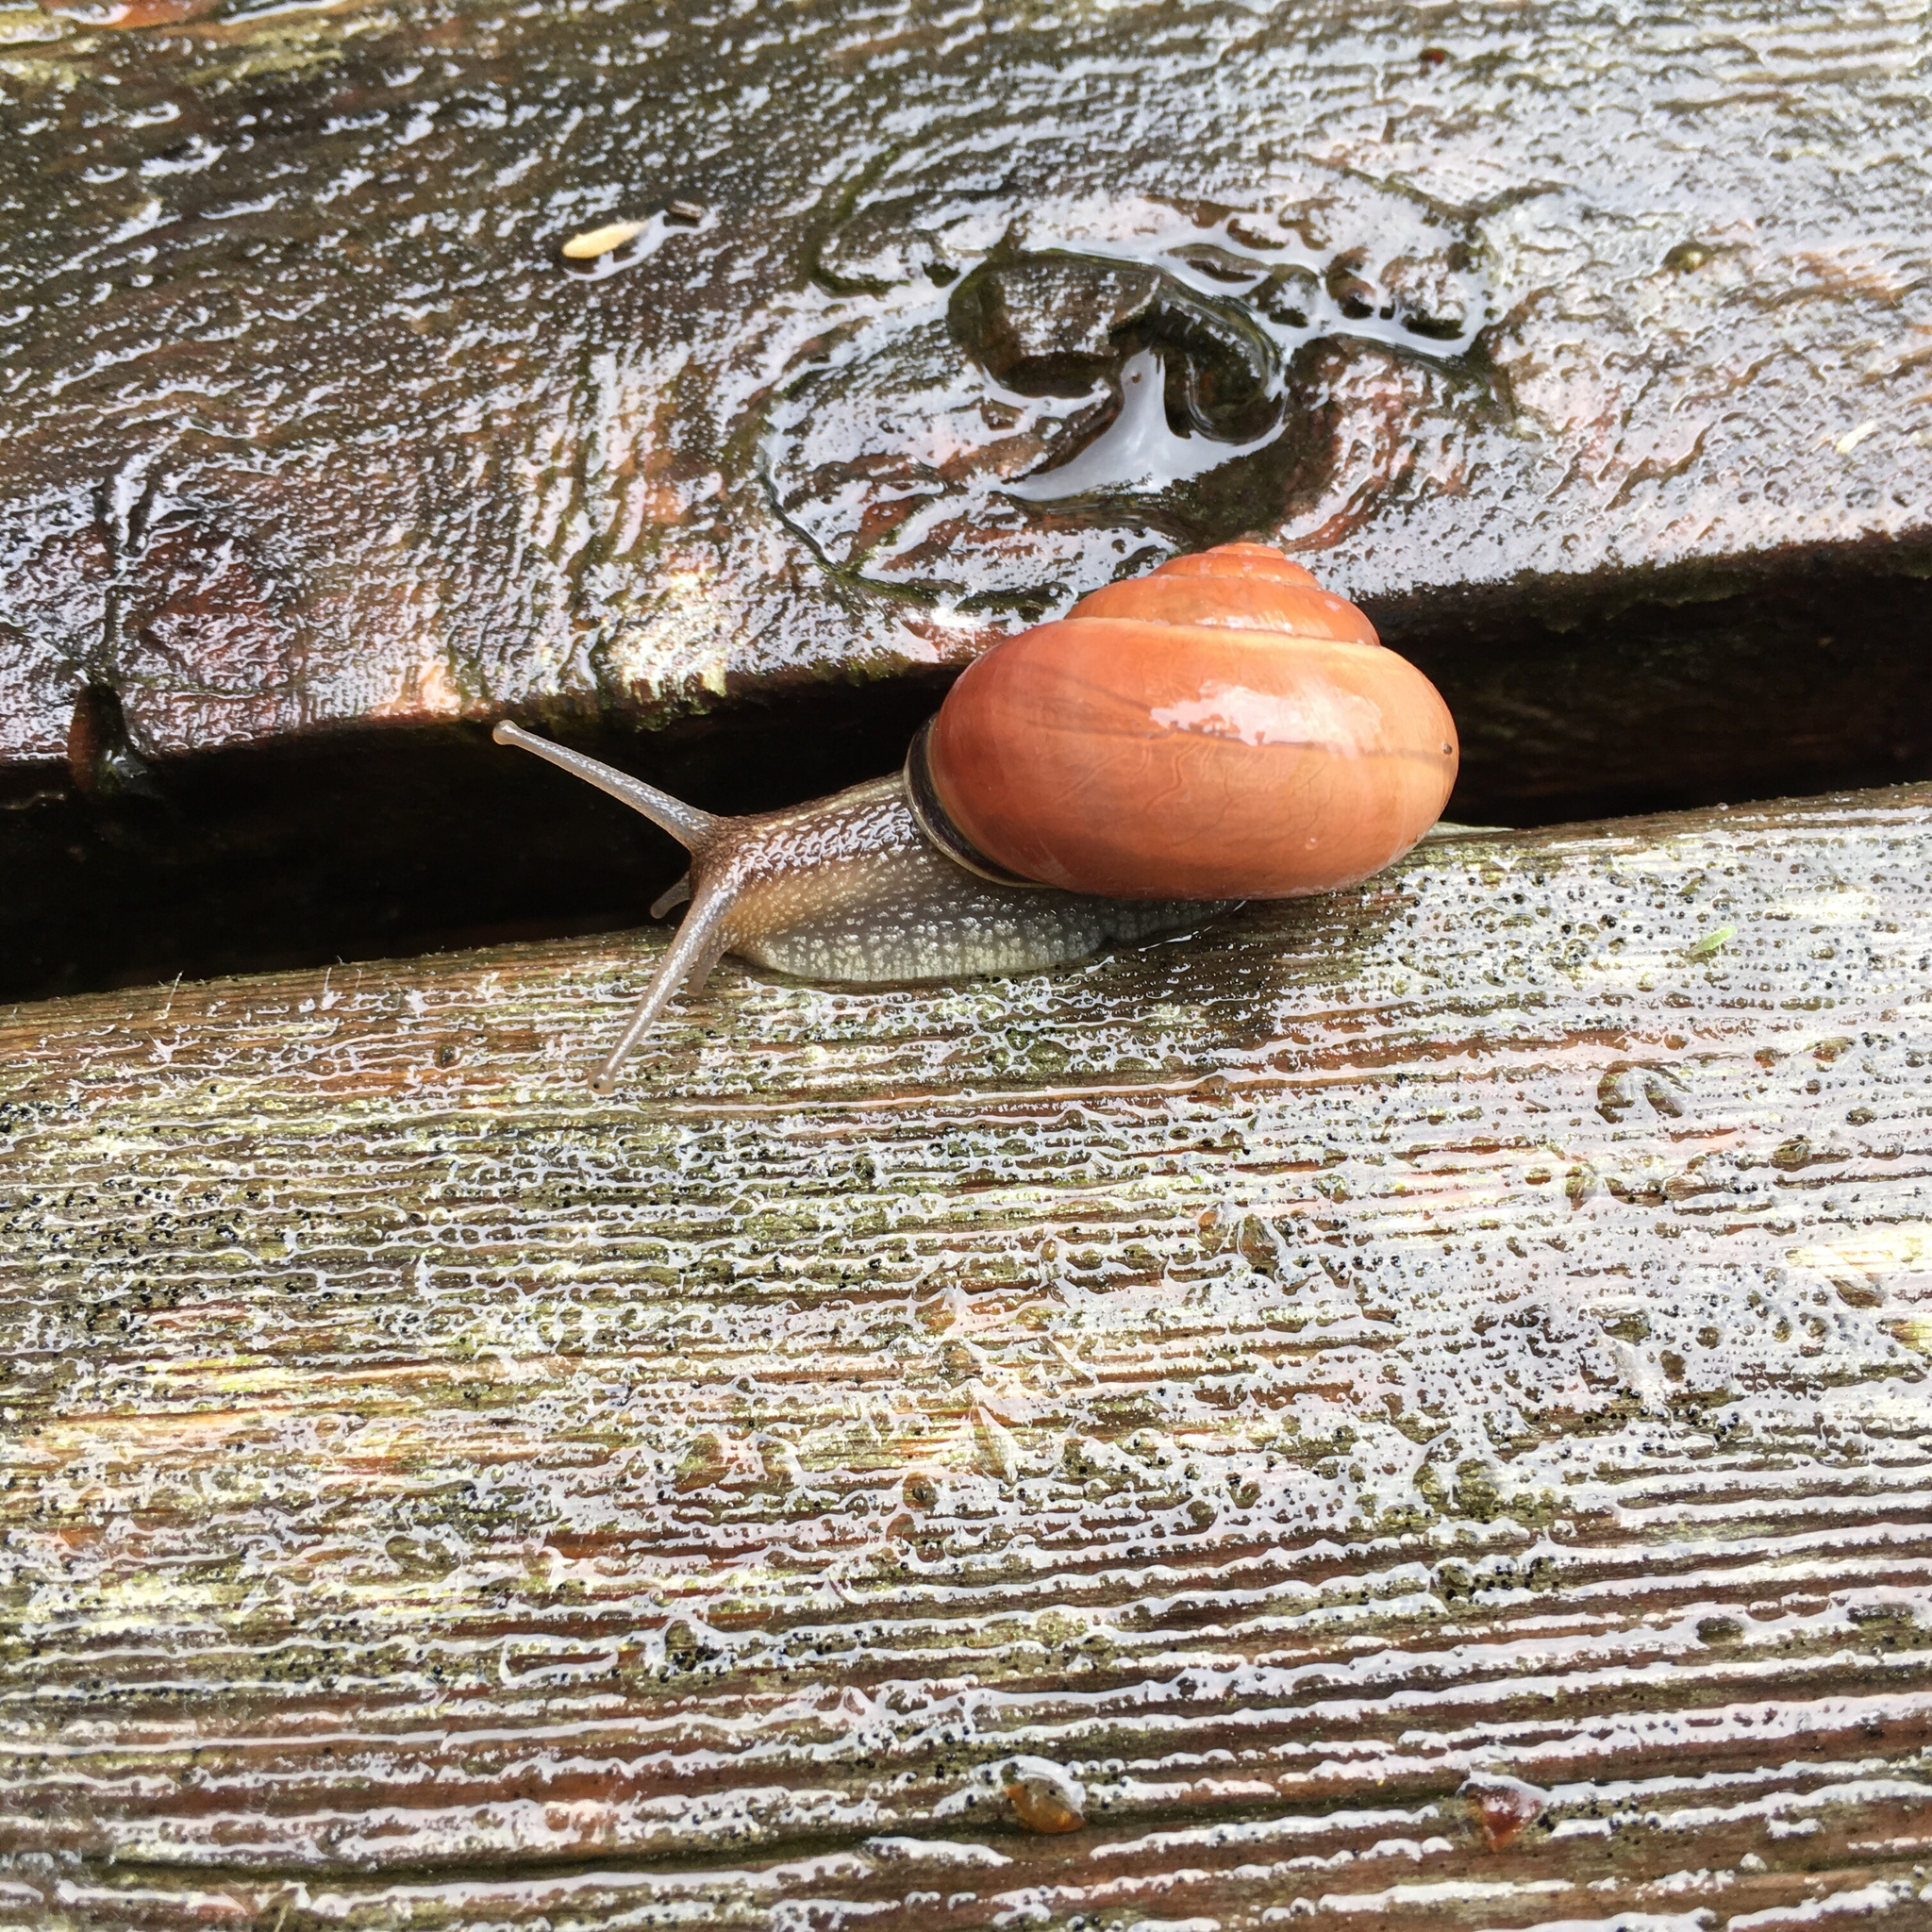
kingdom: Animalia
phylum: Mollusca
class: Gastropoda
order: Stylommatophora
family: Helicidae
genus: Cepaea
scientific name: Cepaea nemoralis
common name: Grovesnail
